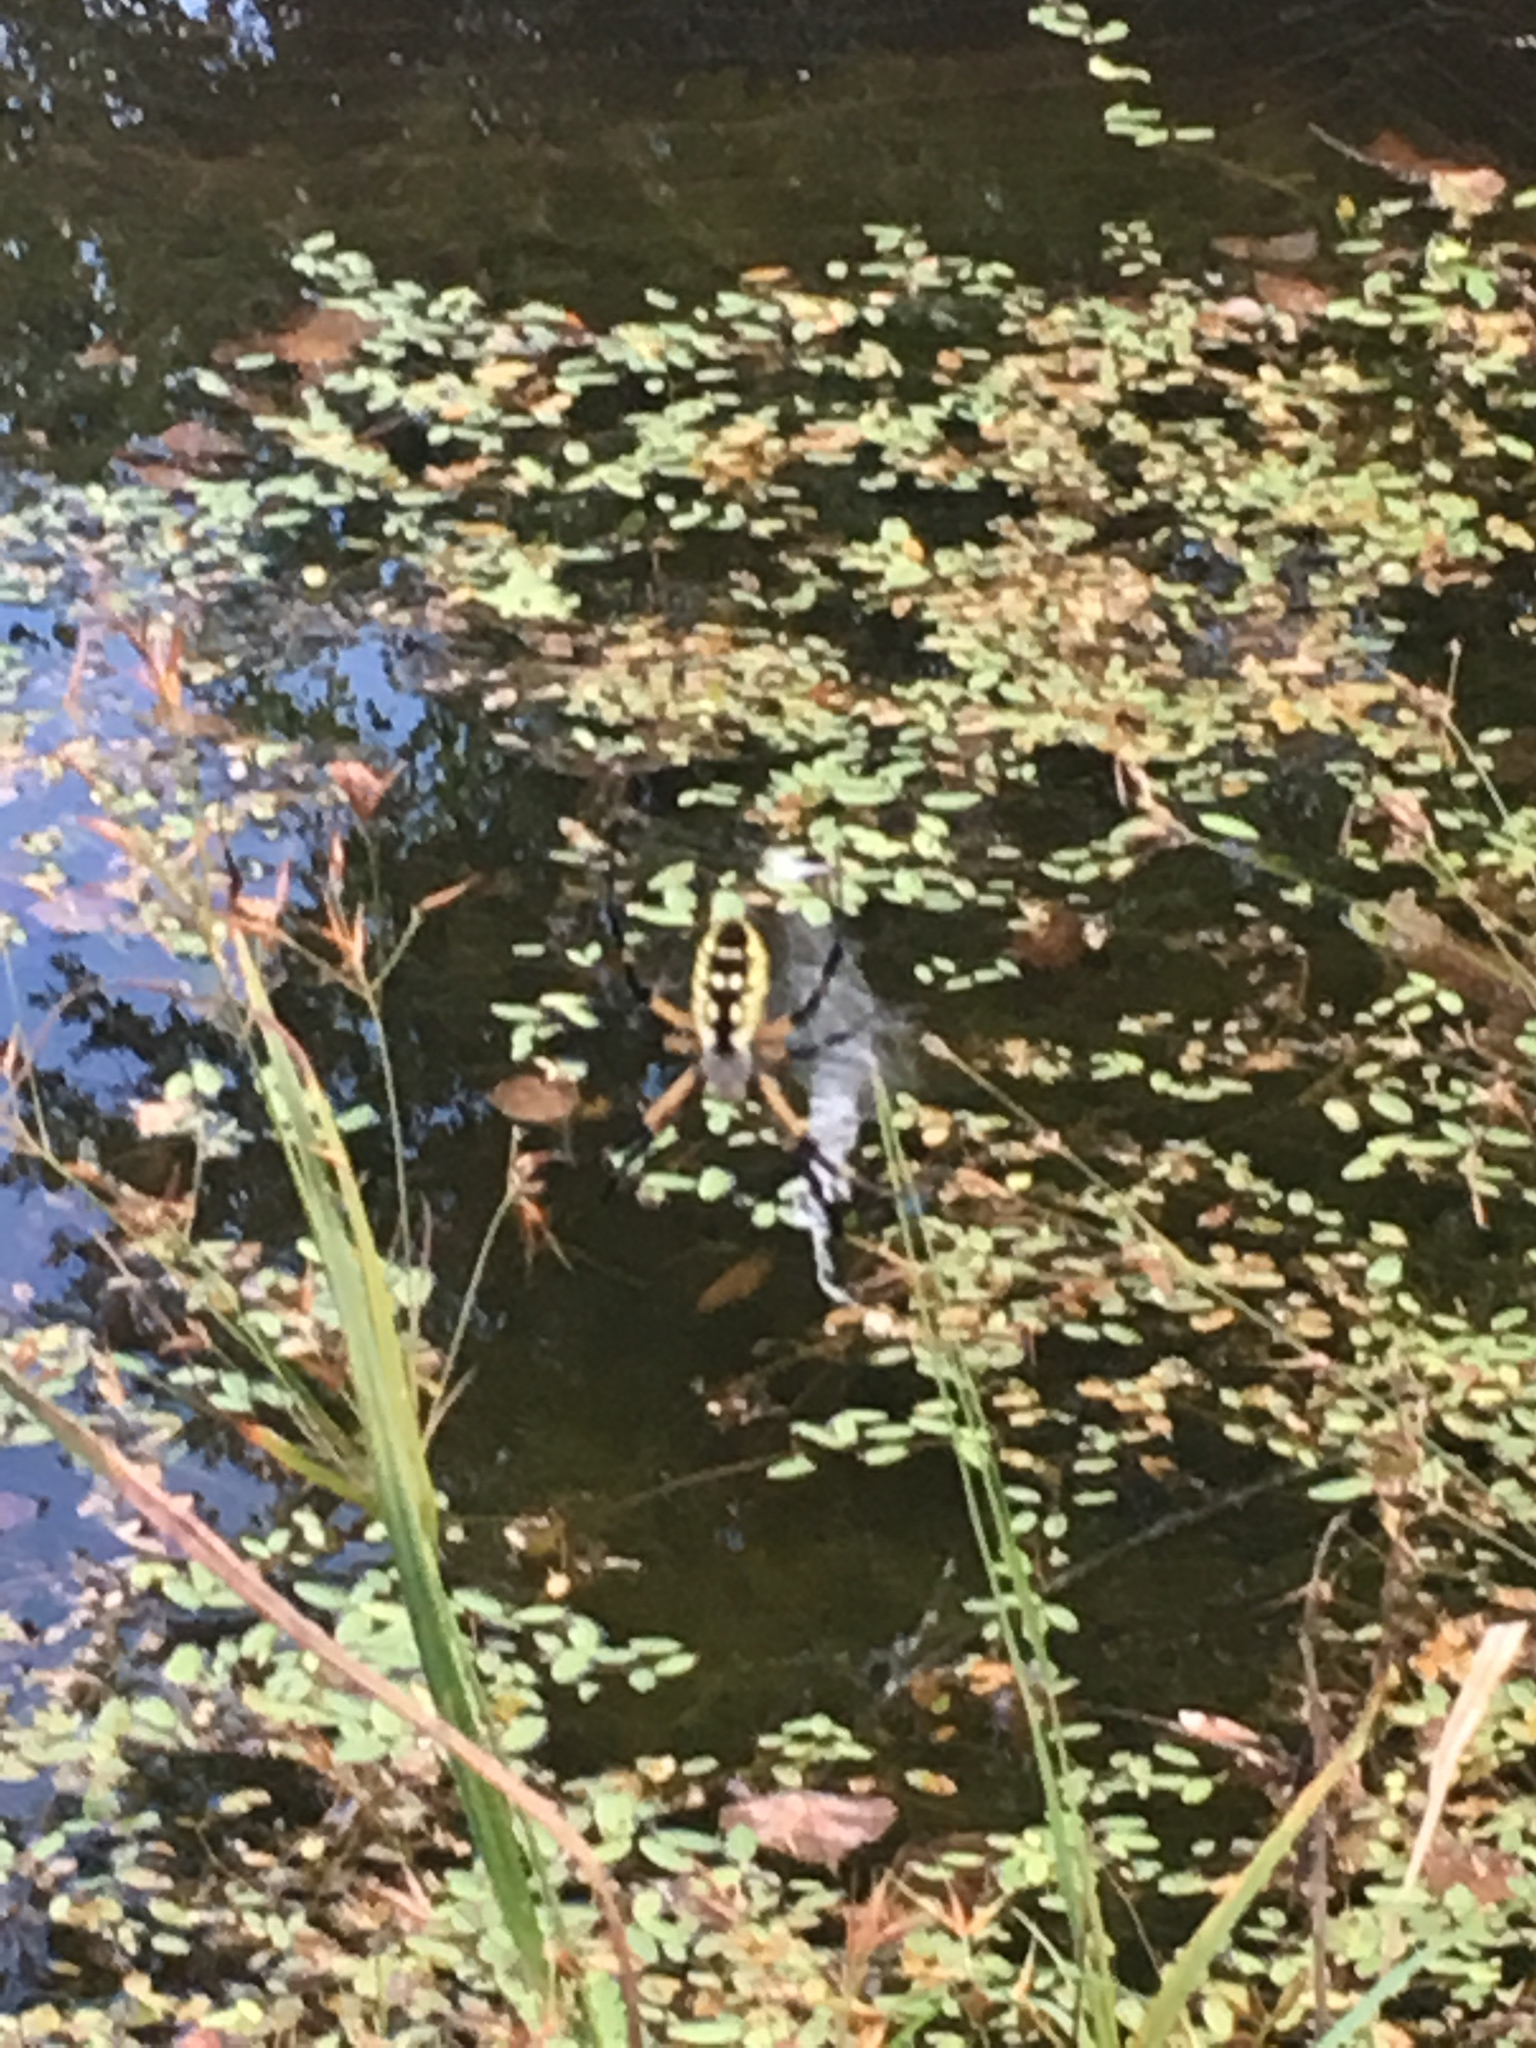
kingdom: Animalia
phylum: Arthropoda
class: Arachnida
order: Araneae
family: Araneidae
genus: Argiope
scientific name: Argiope aurantia
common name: Orb weavers
